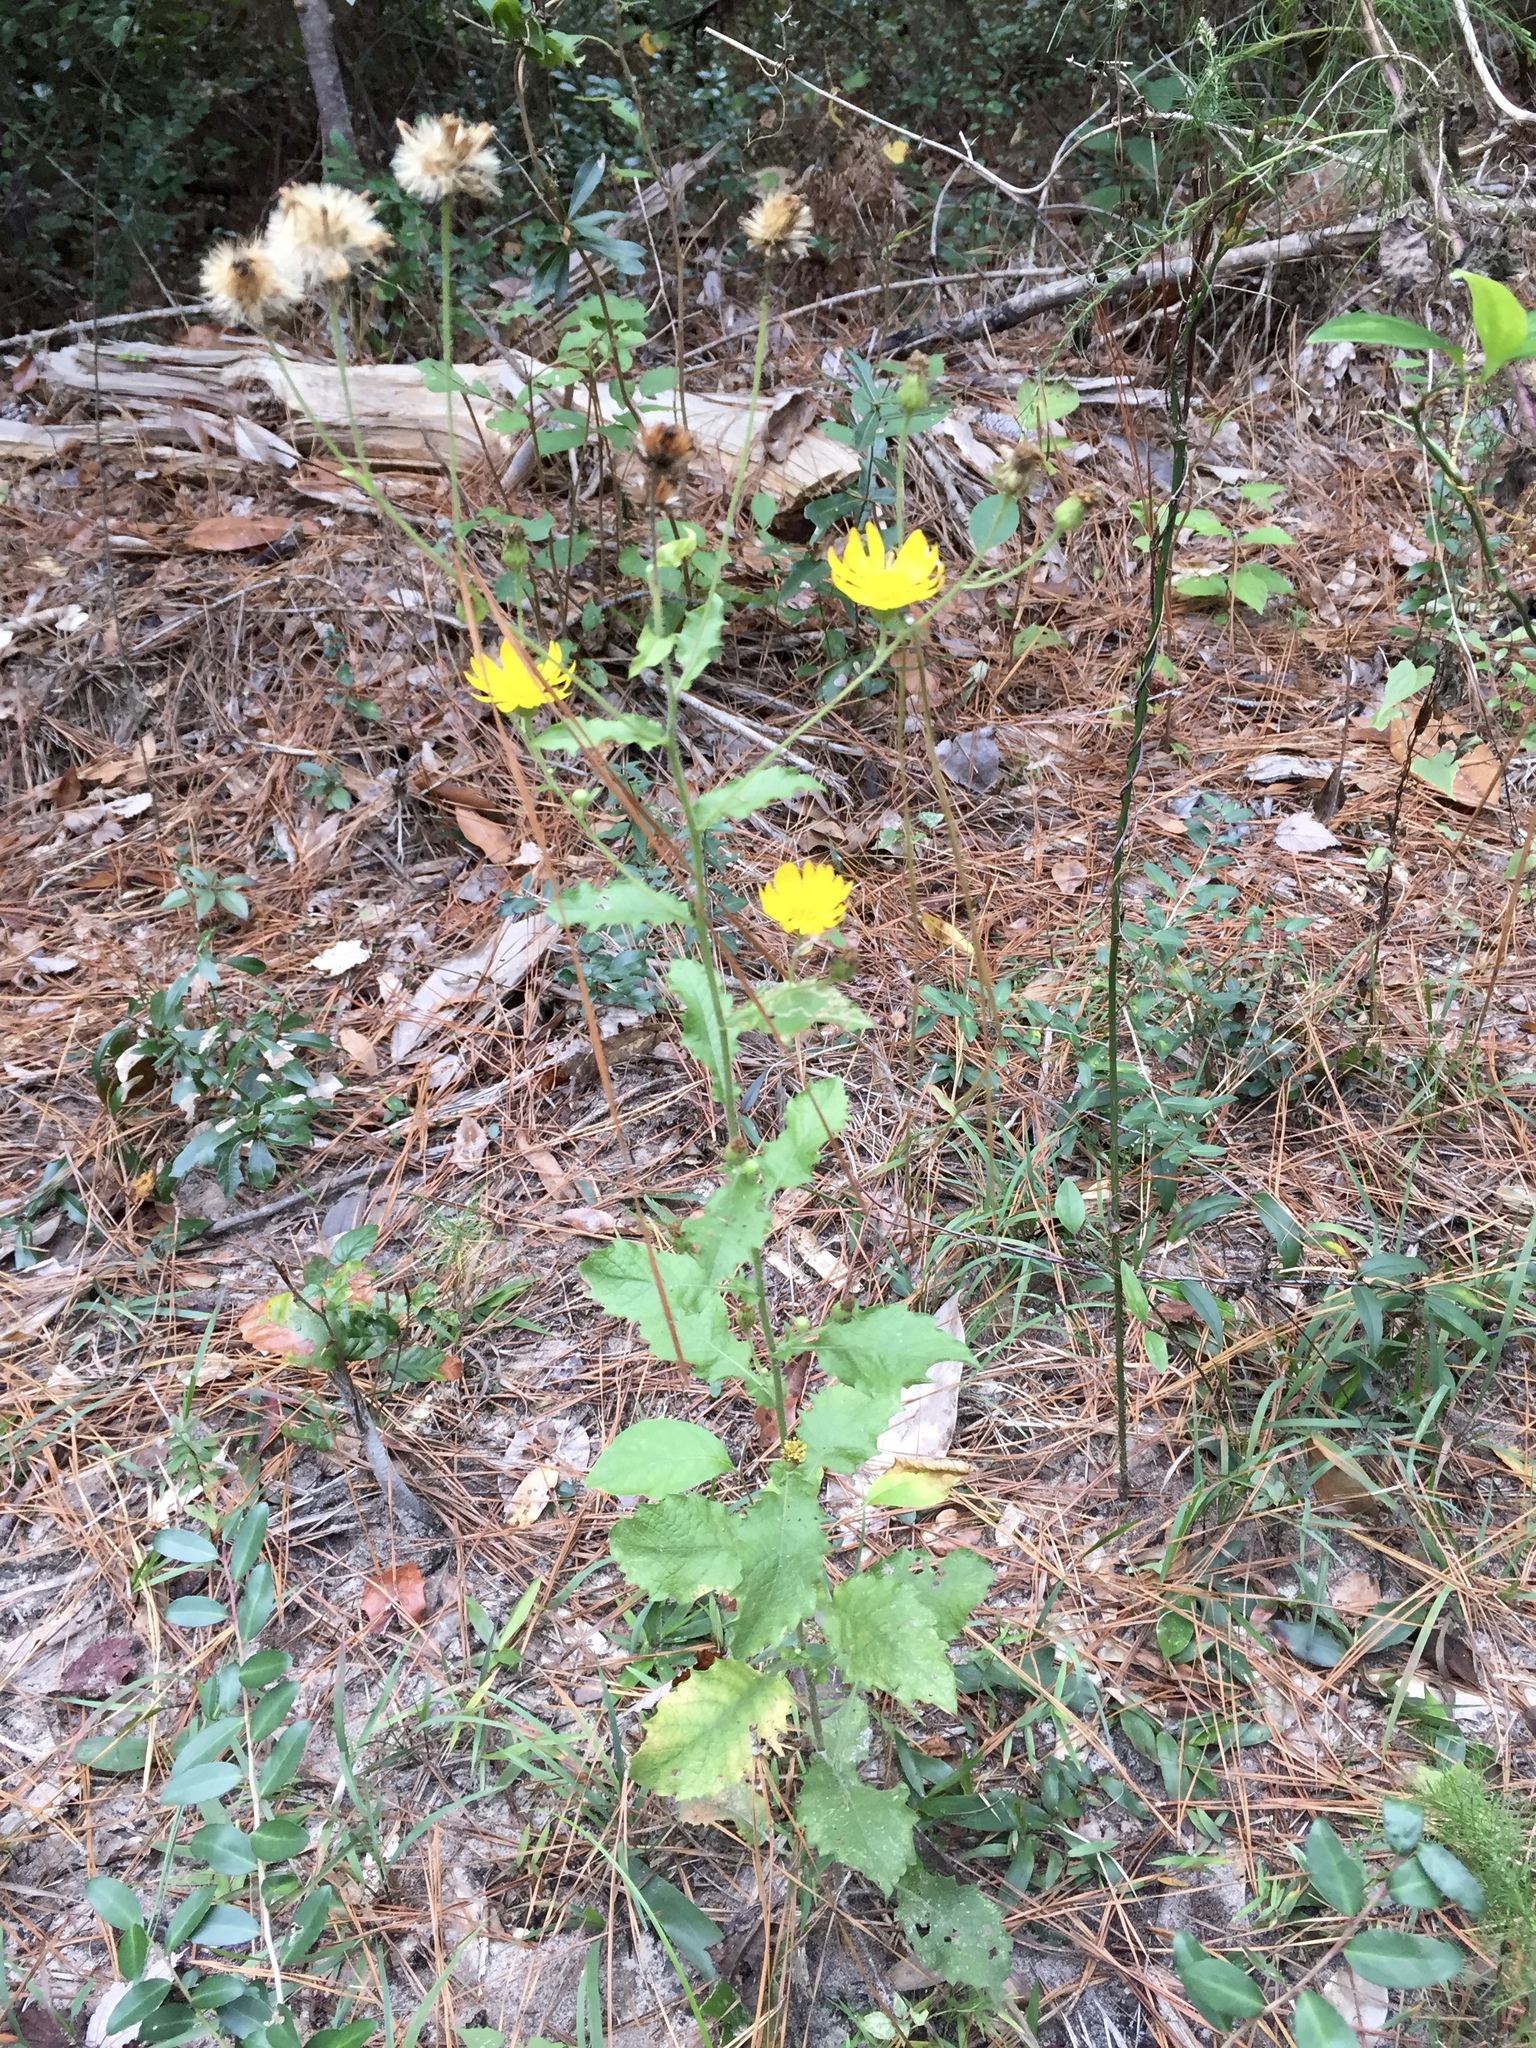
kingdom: Plantae
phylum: Tracheophyta
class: Magnoliopsida
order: Asterales
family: Asteraceae
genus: Heterotheca
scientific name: Heterotheca subaxillaris
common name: Camphorweed
